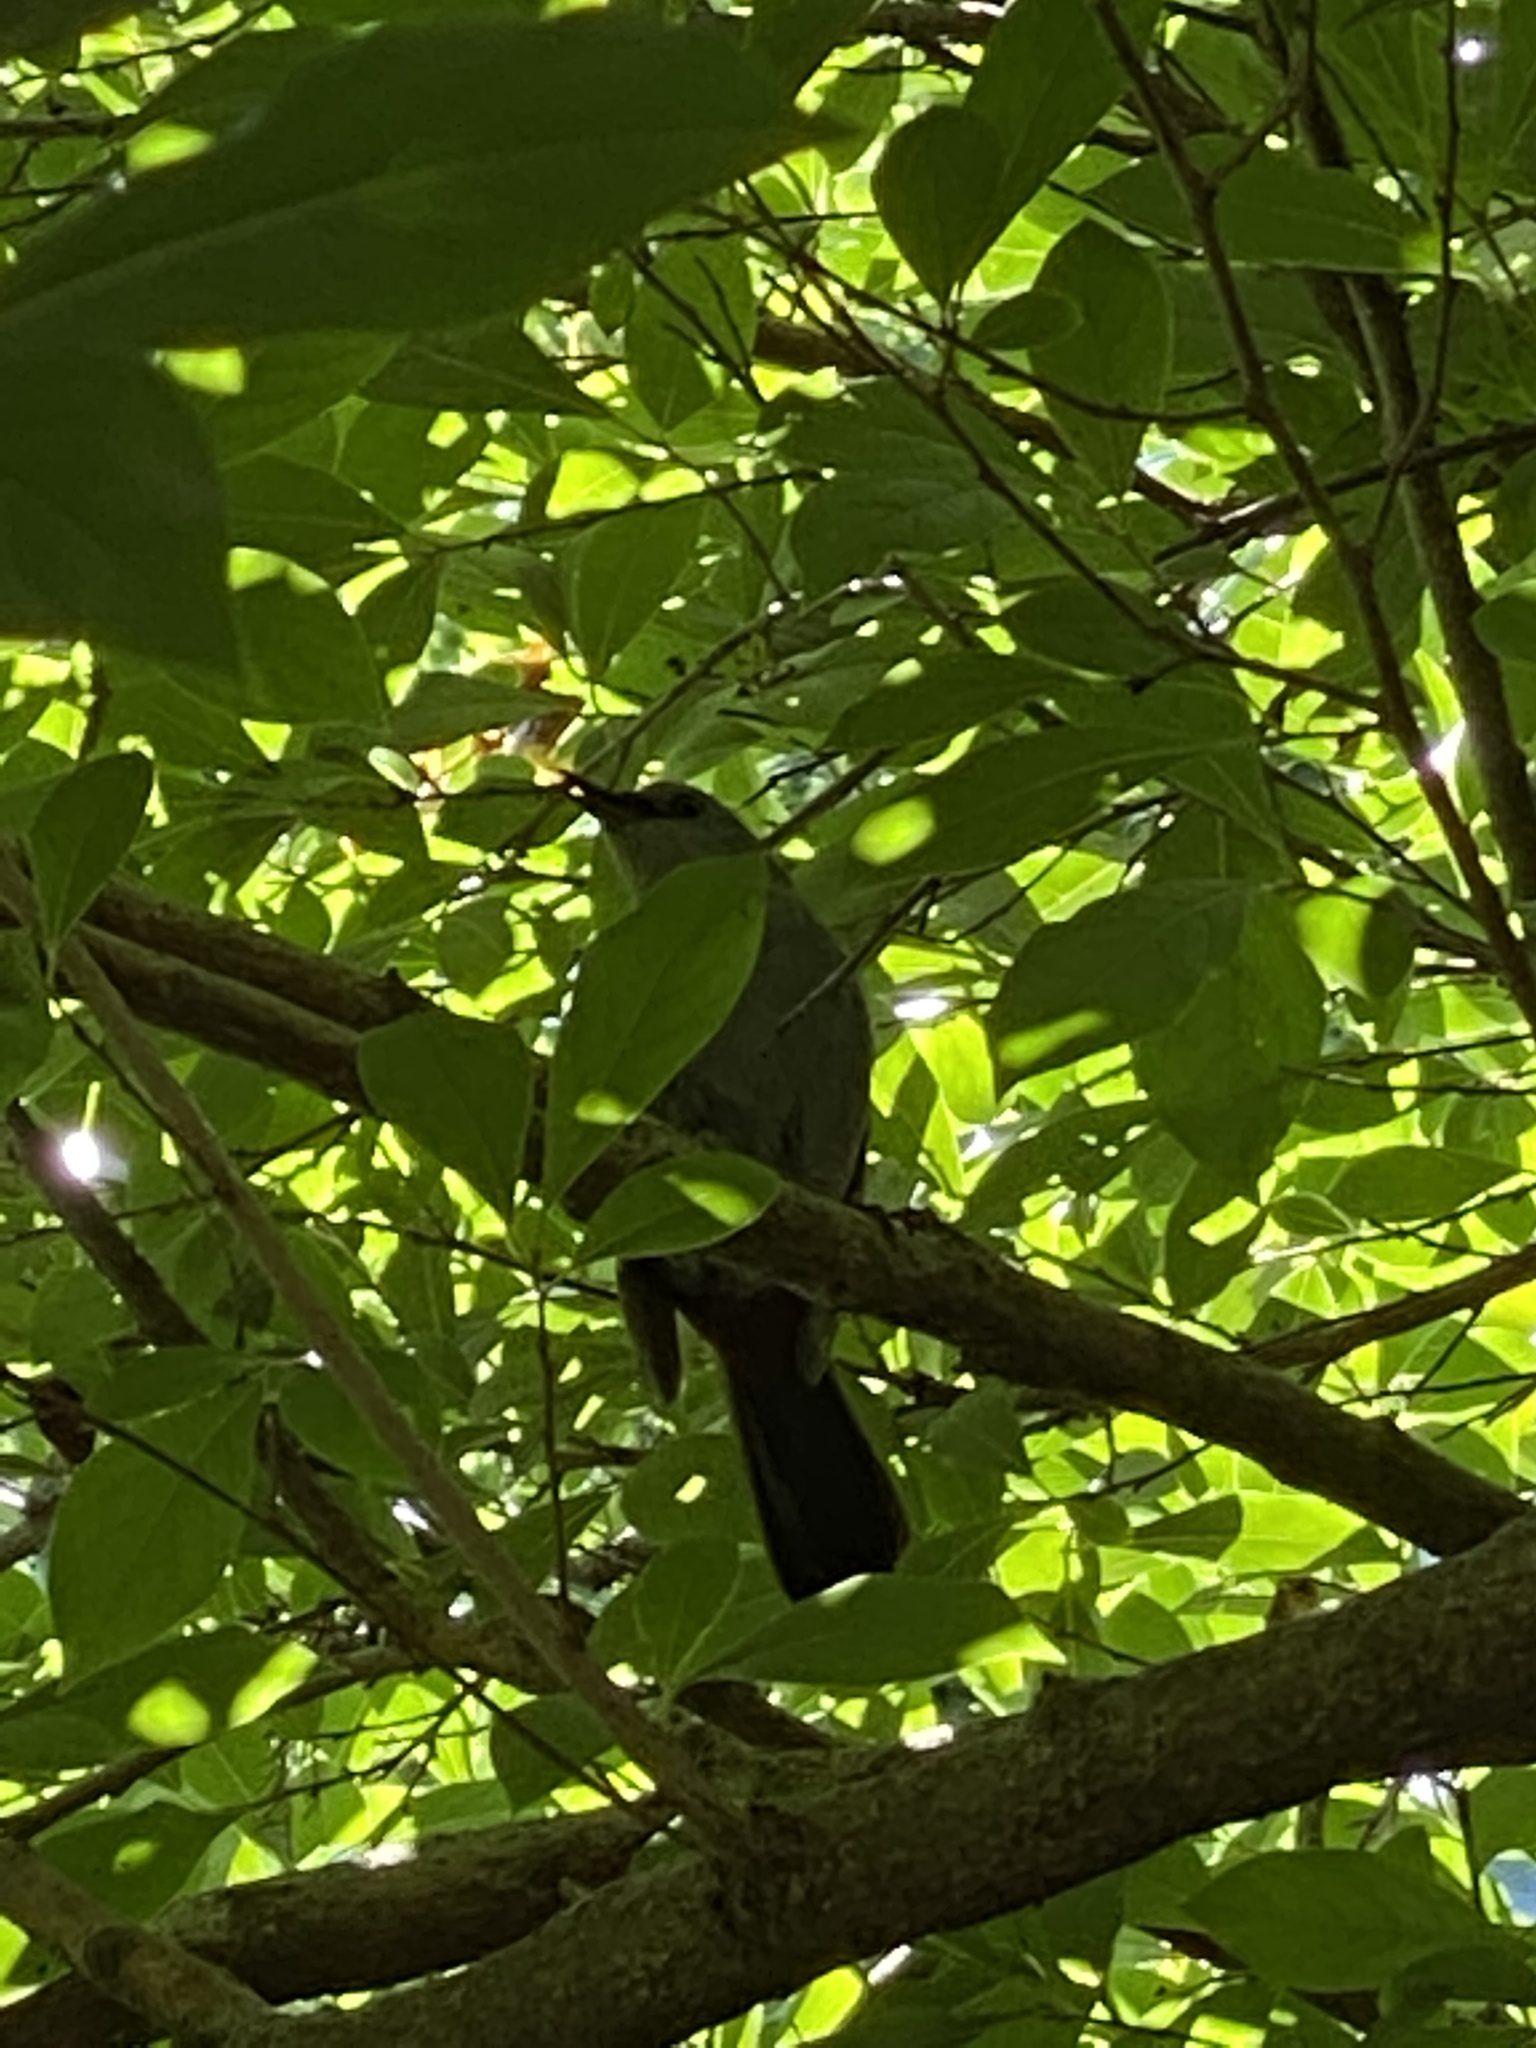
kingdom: Animalia
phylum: Chordata
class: Aves
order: Passeriformes
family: Mimidae
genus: Dumetella
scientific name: Dumetella carolinensis
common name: Gray catbird
